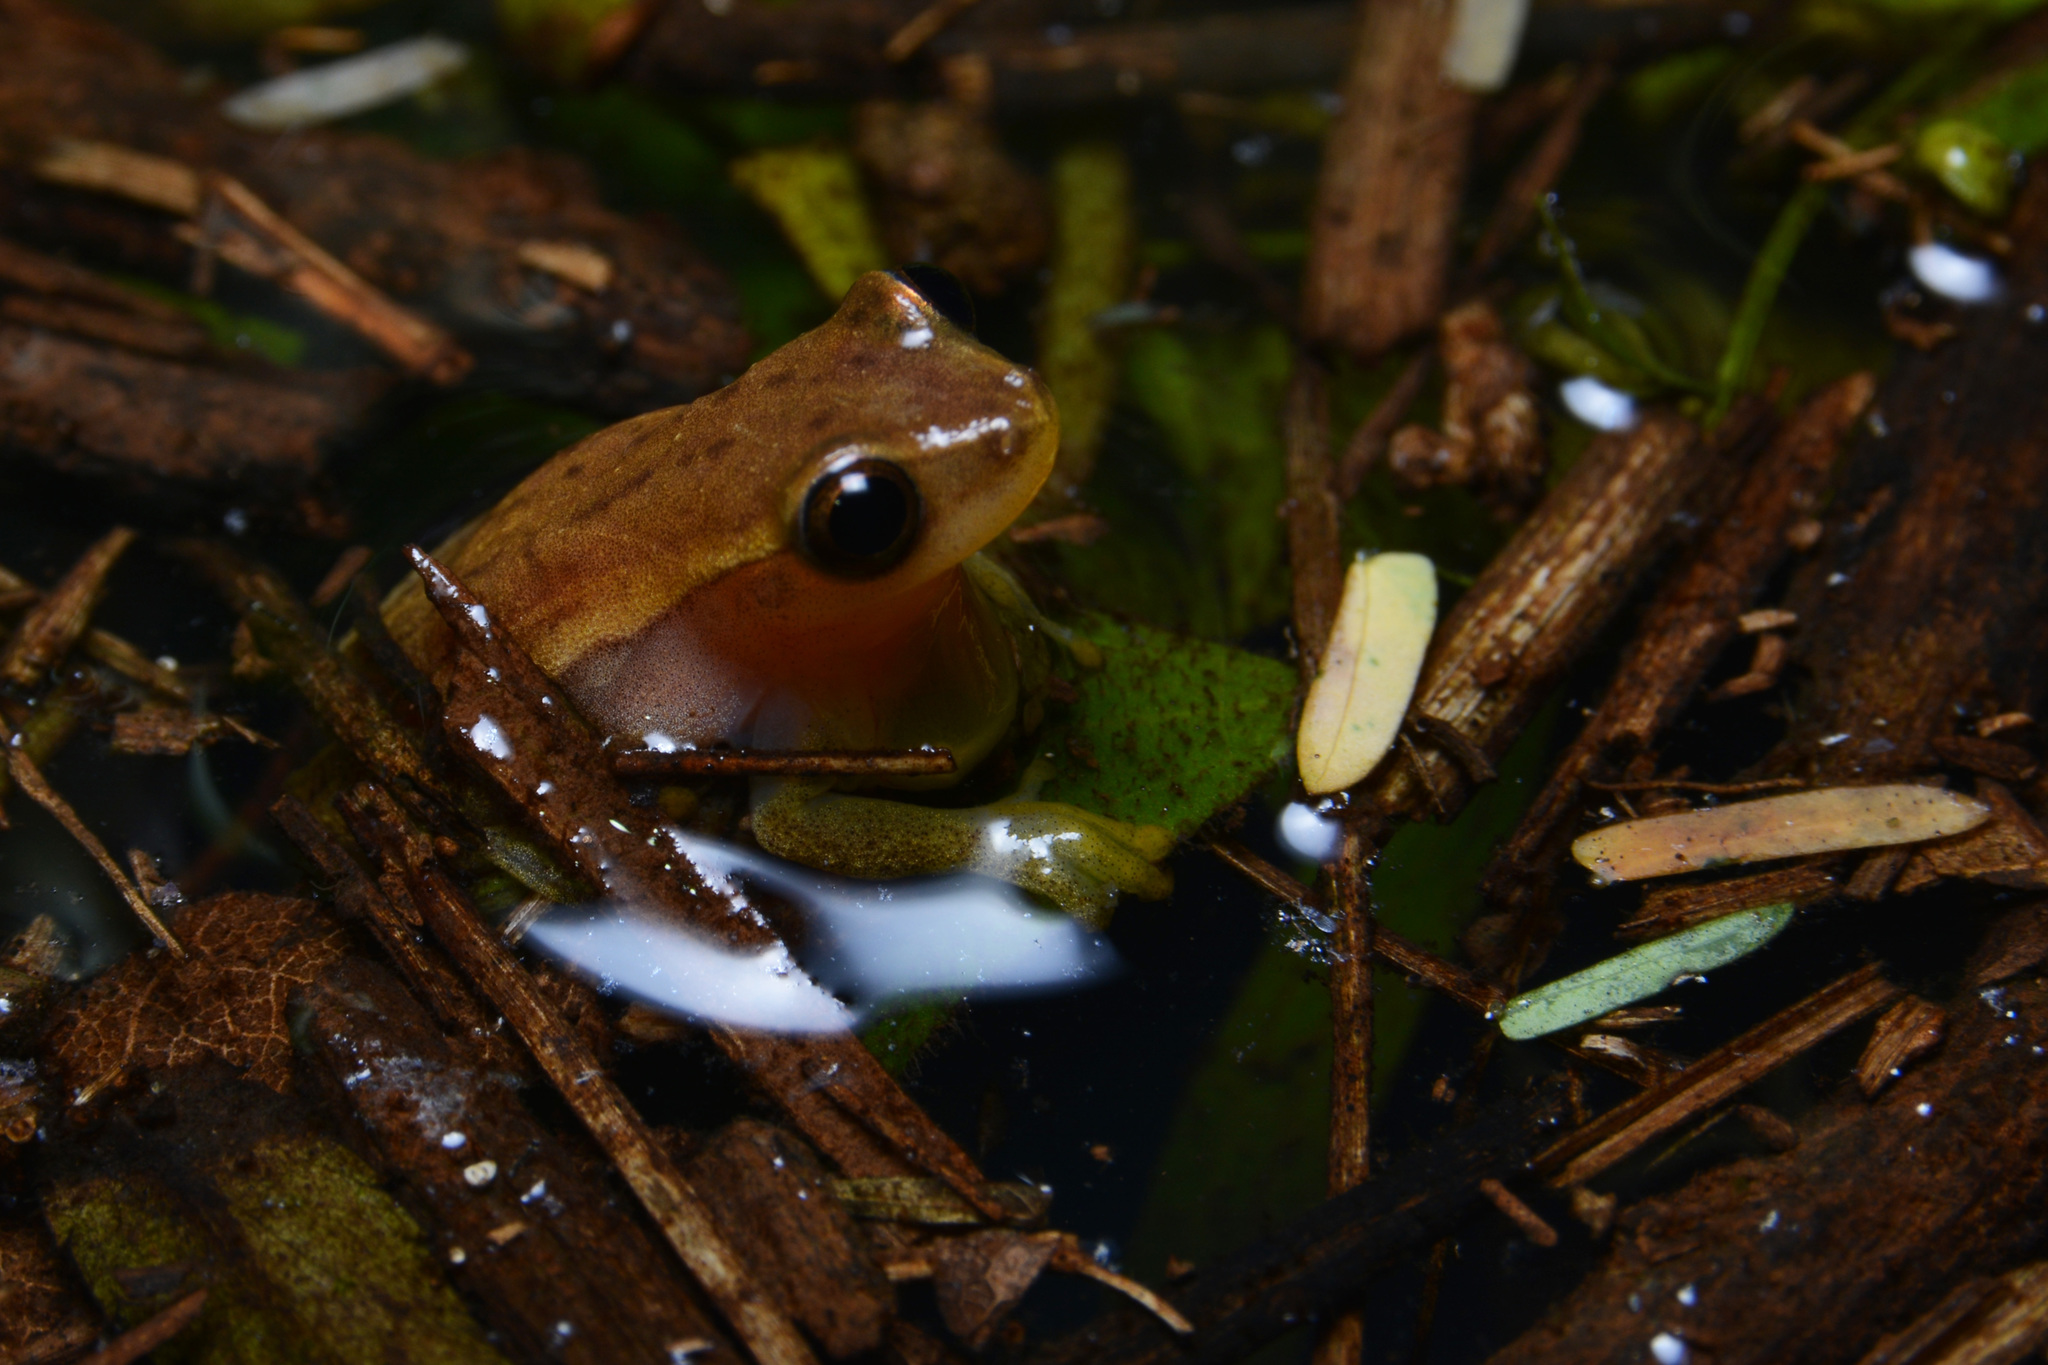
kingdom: Animalia
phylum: Chordata
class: Amphibia
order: Anura
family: Hylidae
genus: Dendropsophus
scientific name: Dendropsophus nanus
